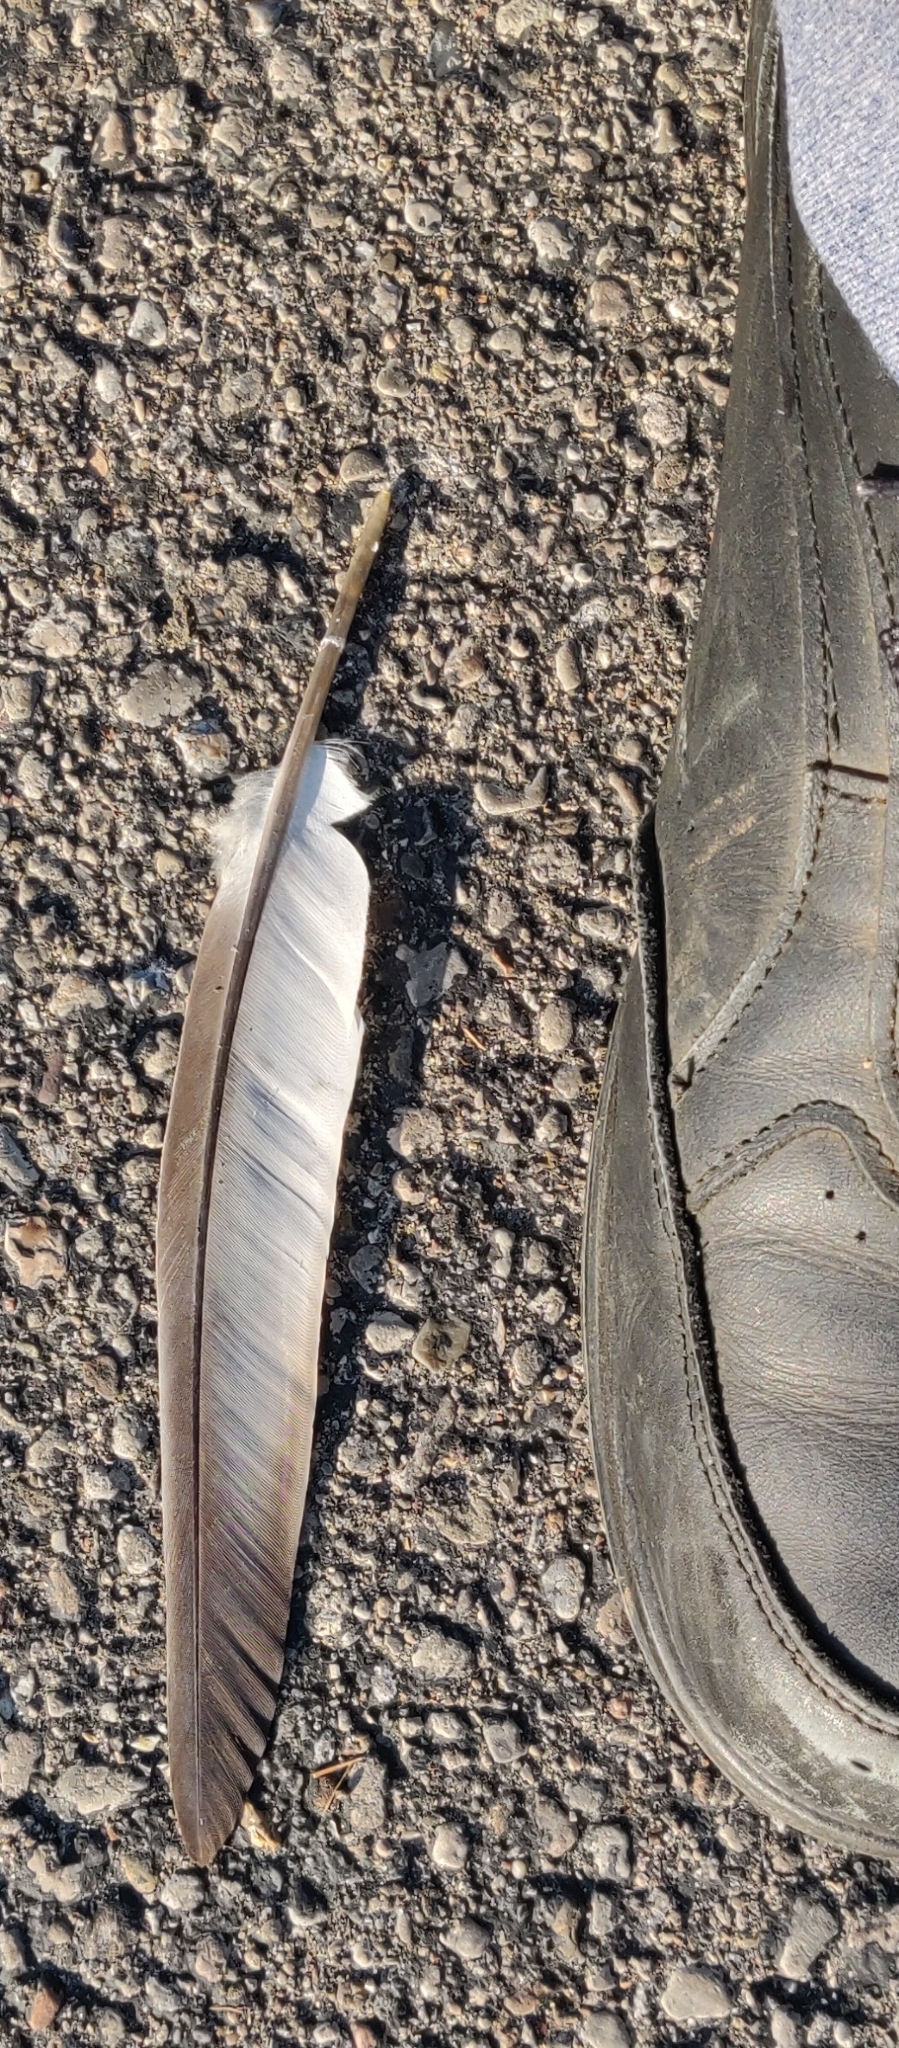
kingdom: Animalia
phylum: Chordata
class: Aves
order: Columbiformes
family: Columbidae
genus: Columba
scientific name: Columba livia
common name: Rock pigeon
